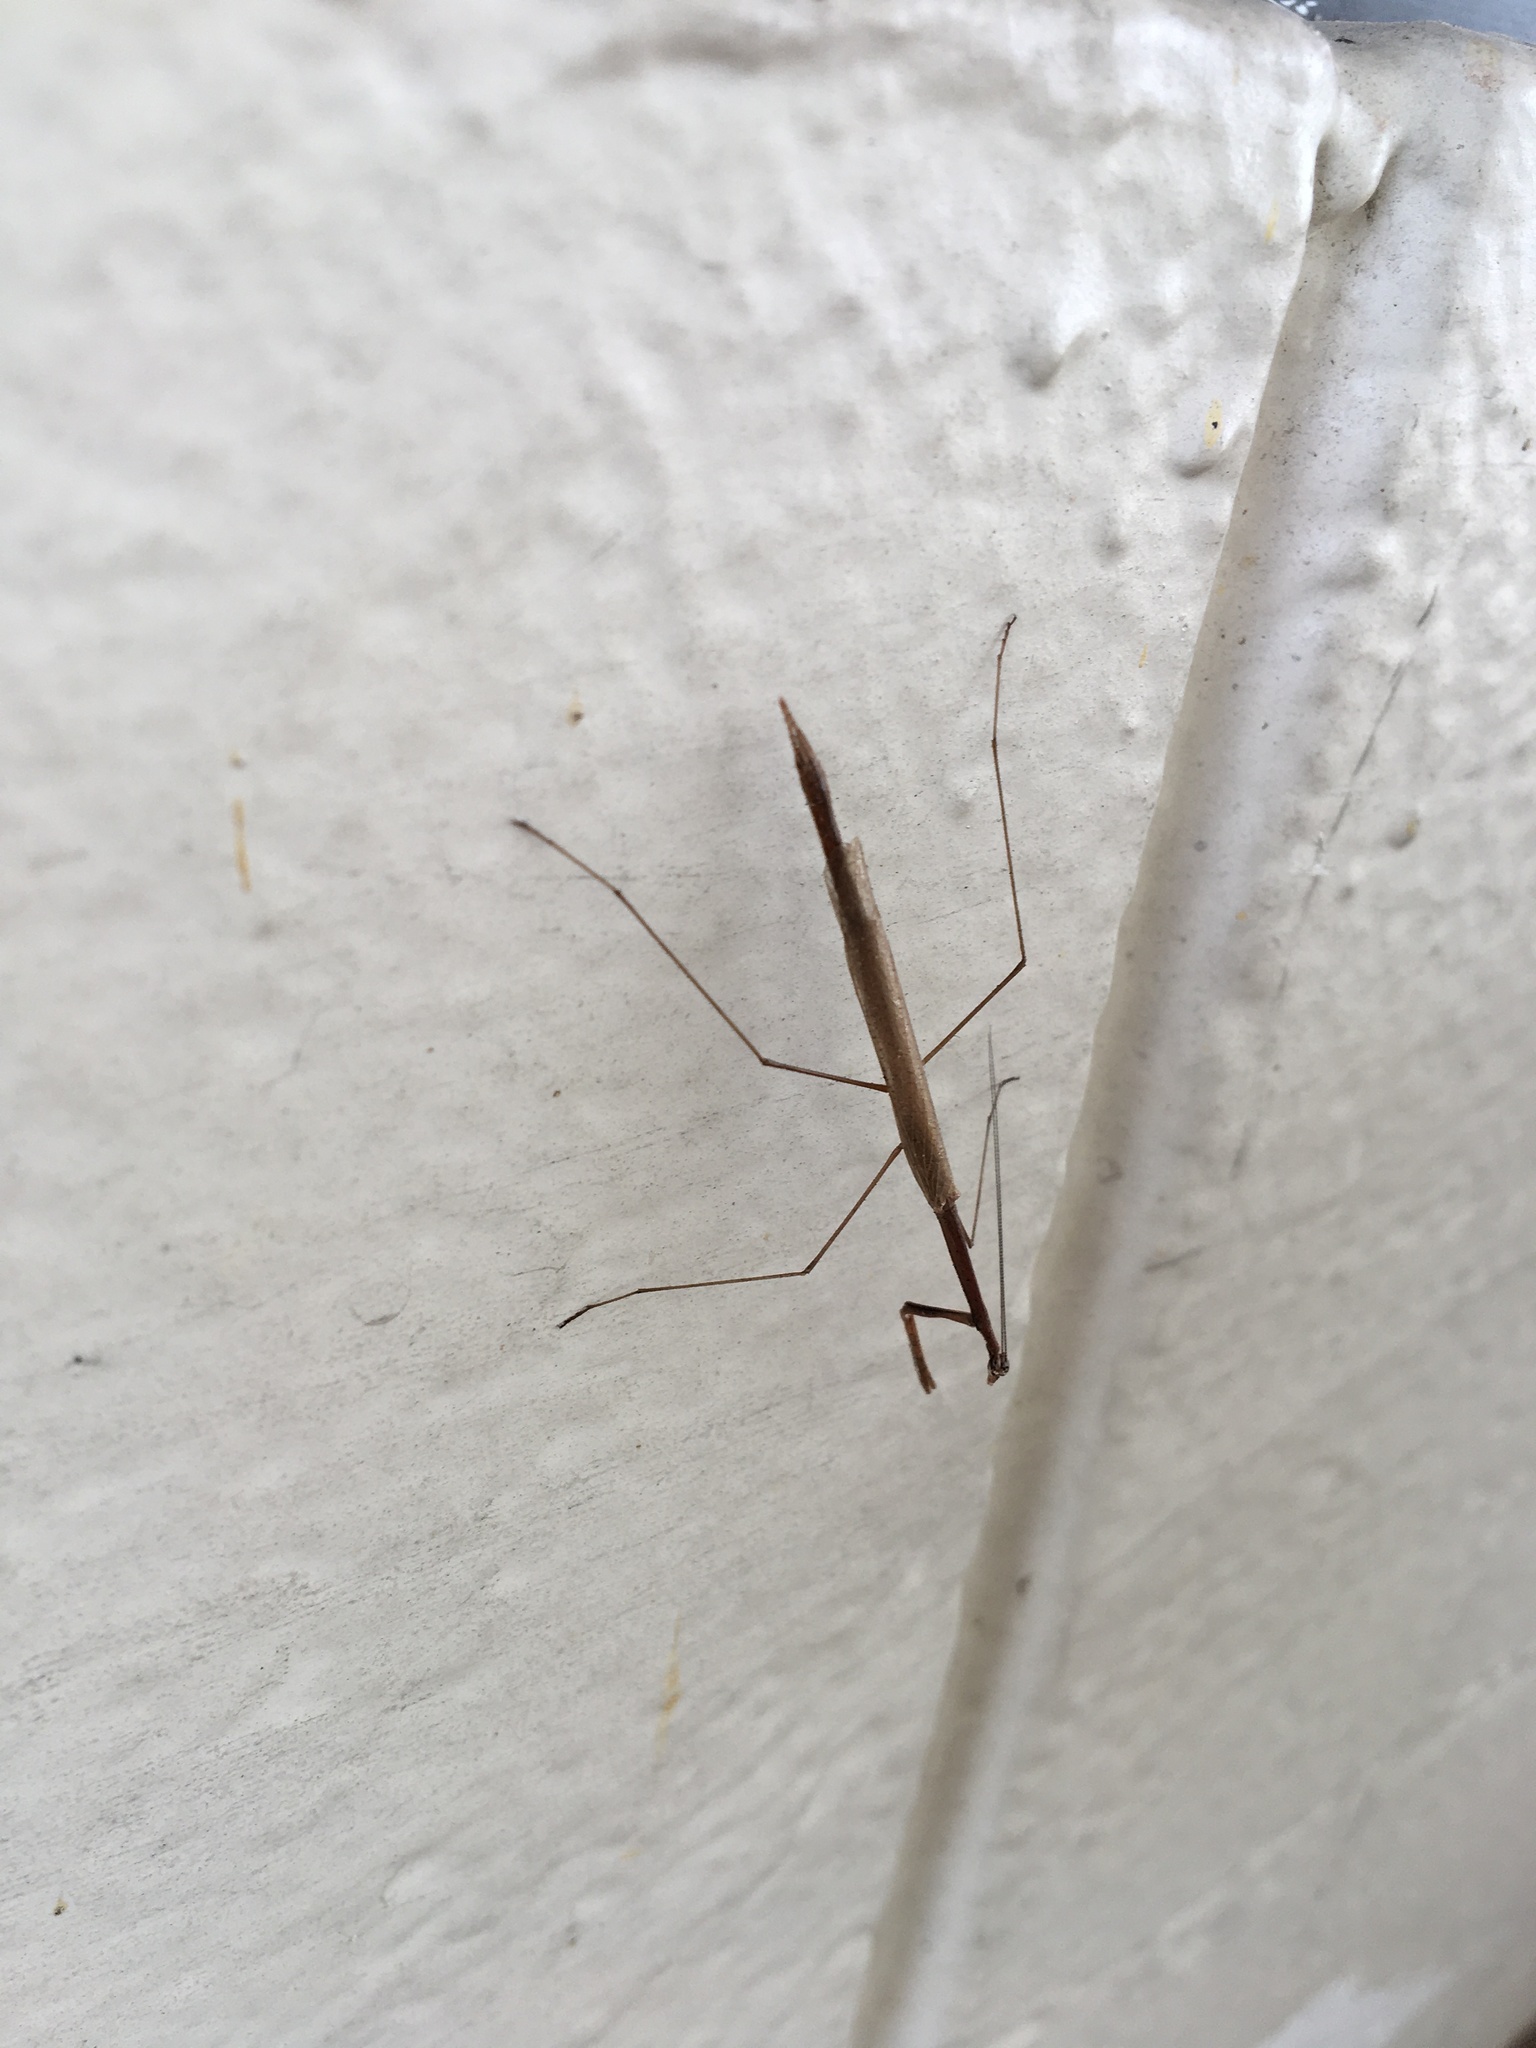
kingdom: Animalia
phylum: Arthropoda
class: Insecta
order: Mantodea
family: Thespidae
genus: Thesprotia
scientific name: Thesprotia graminis
